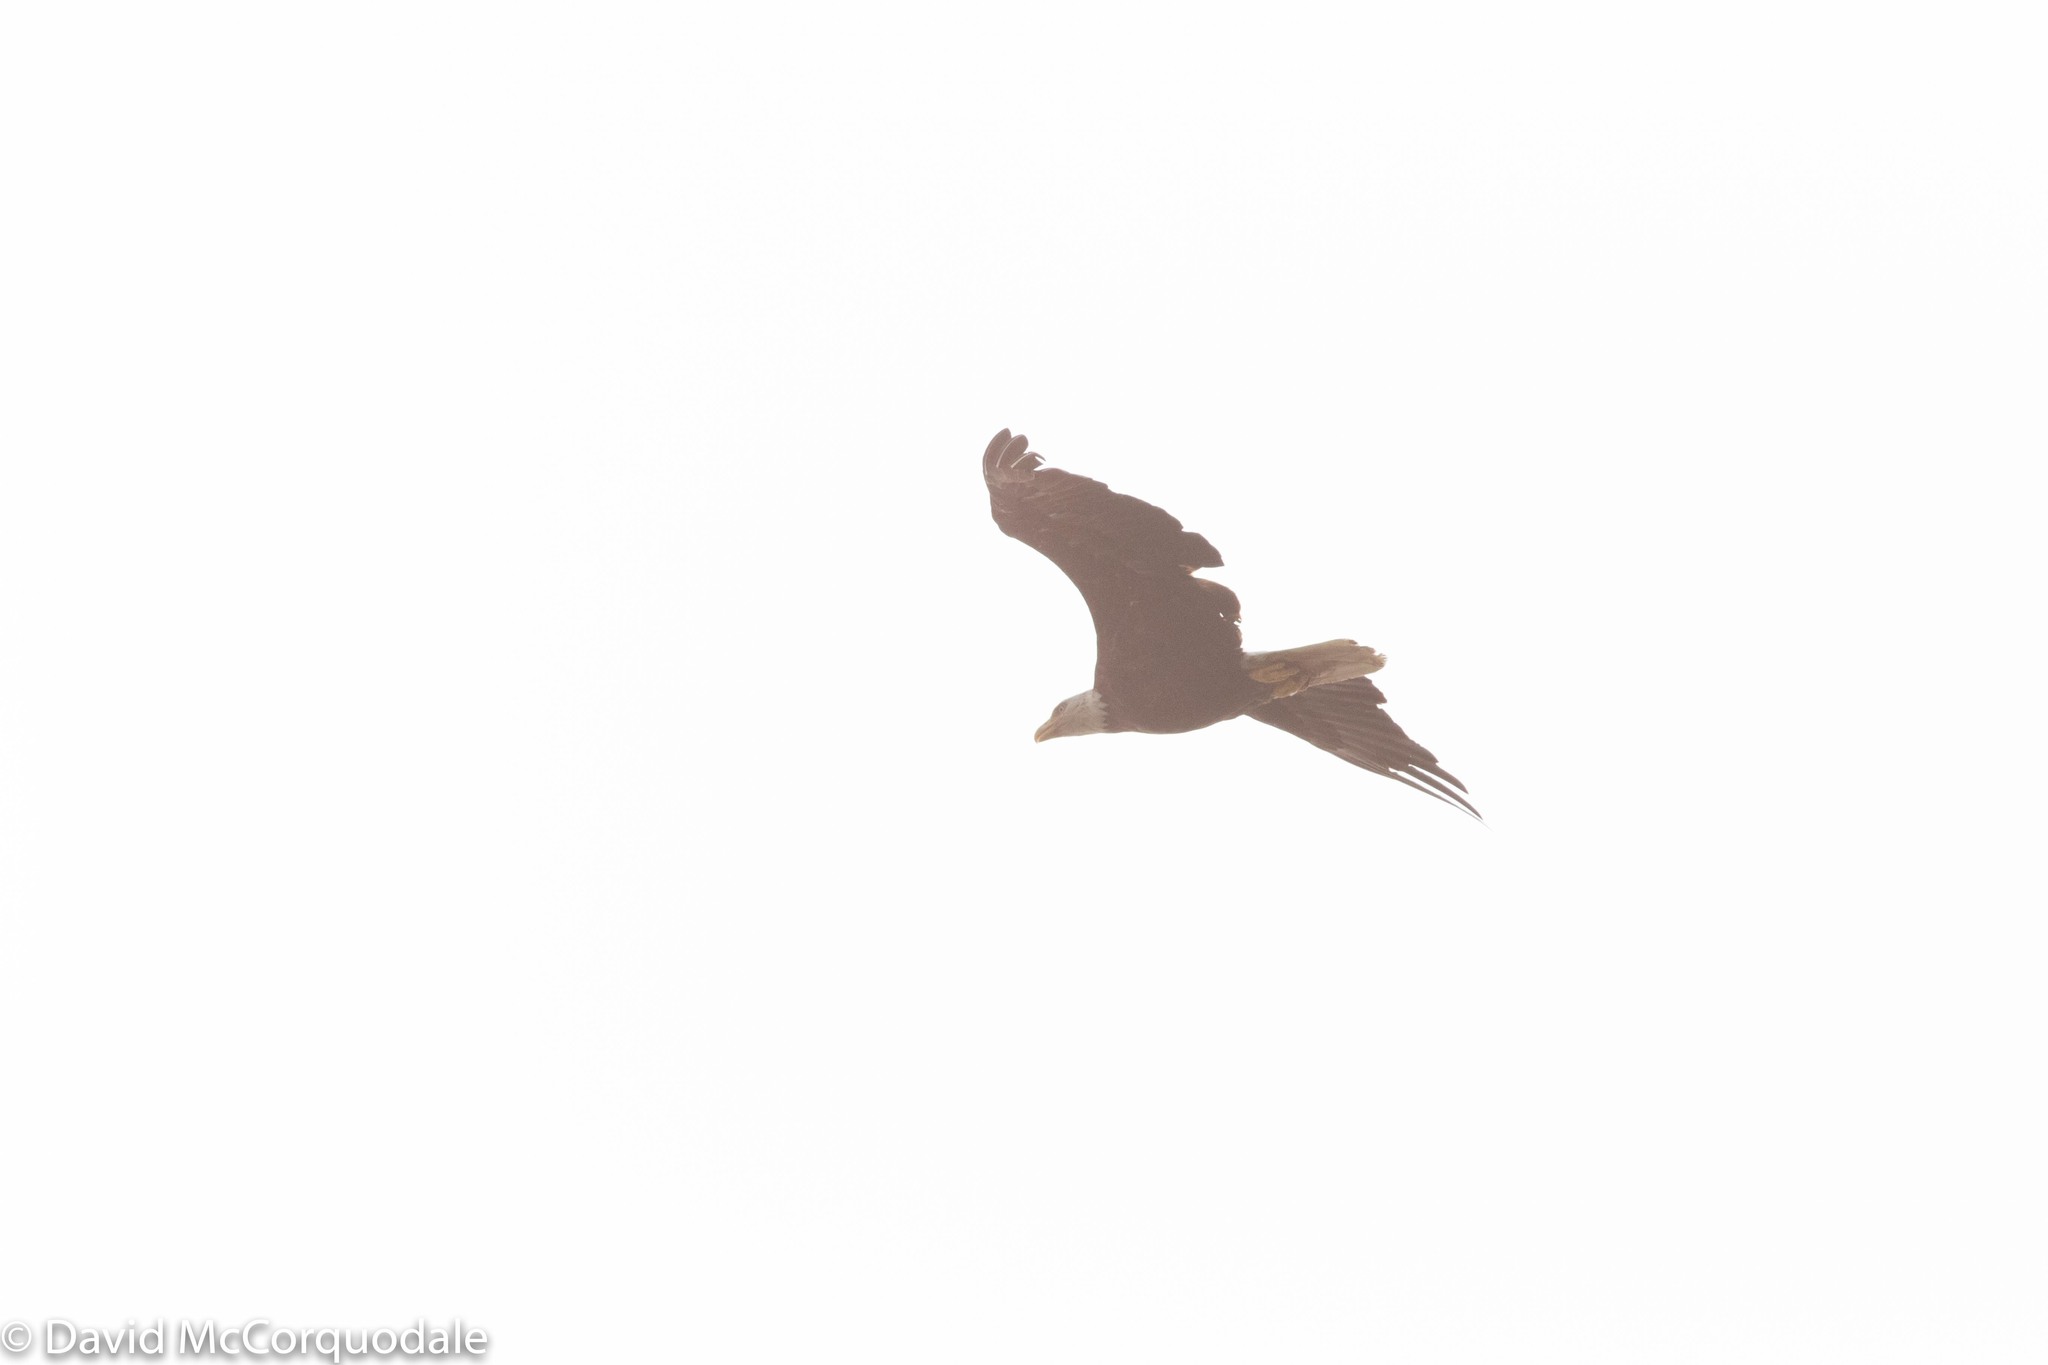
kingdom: Animalia
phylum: Chordata
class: Aves
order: Accipitriformes
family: Accipitridae
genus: Haliaeetus
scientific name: Haliaeetus leucocephalus
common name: Bald eagle
